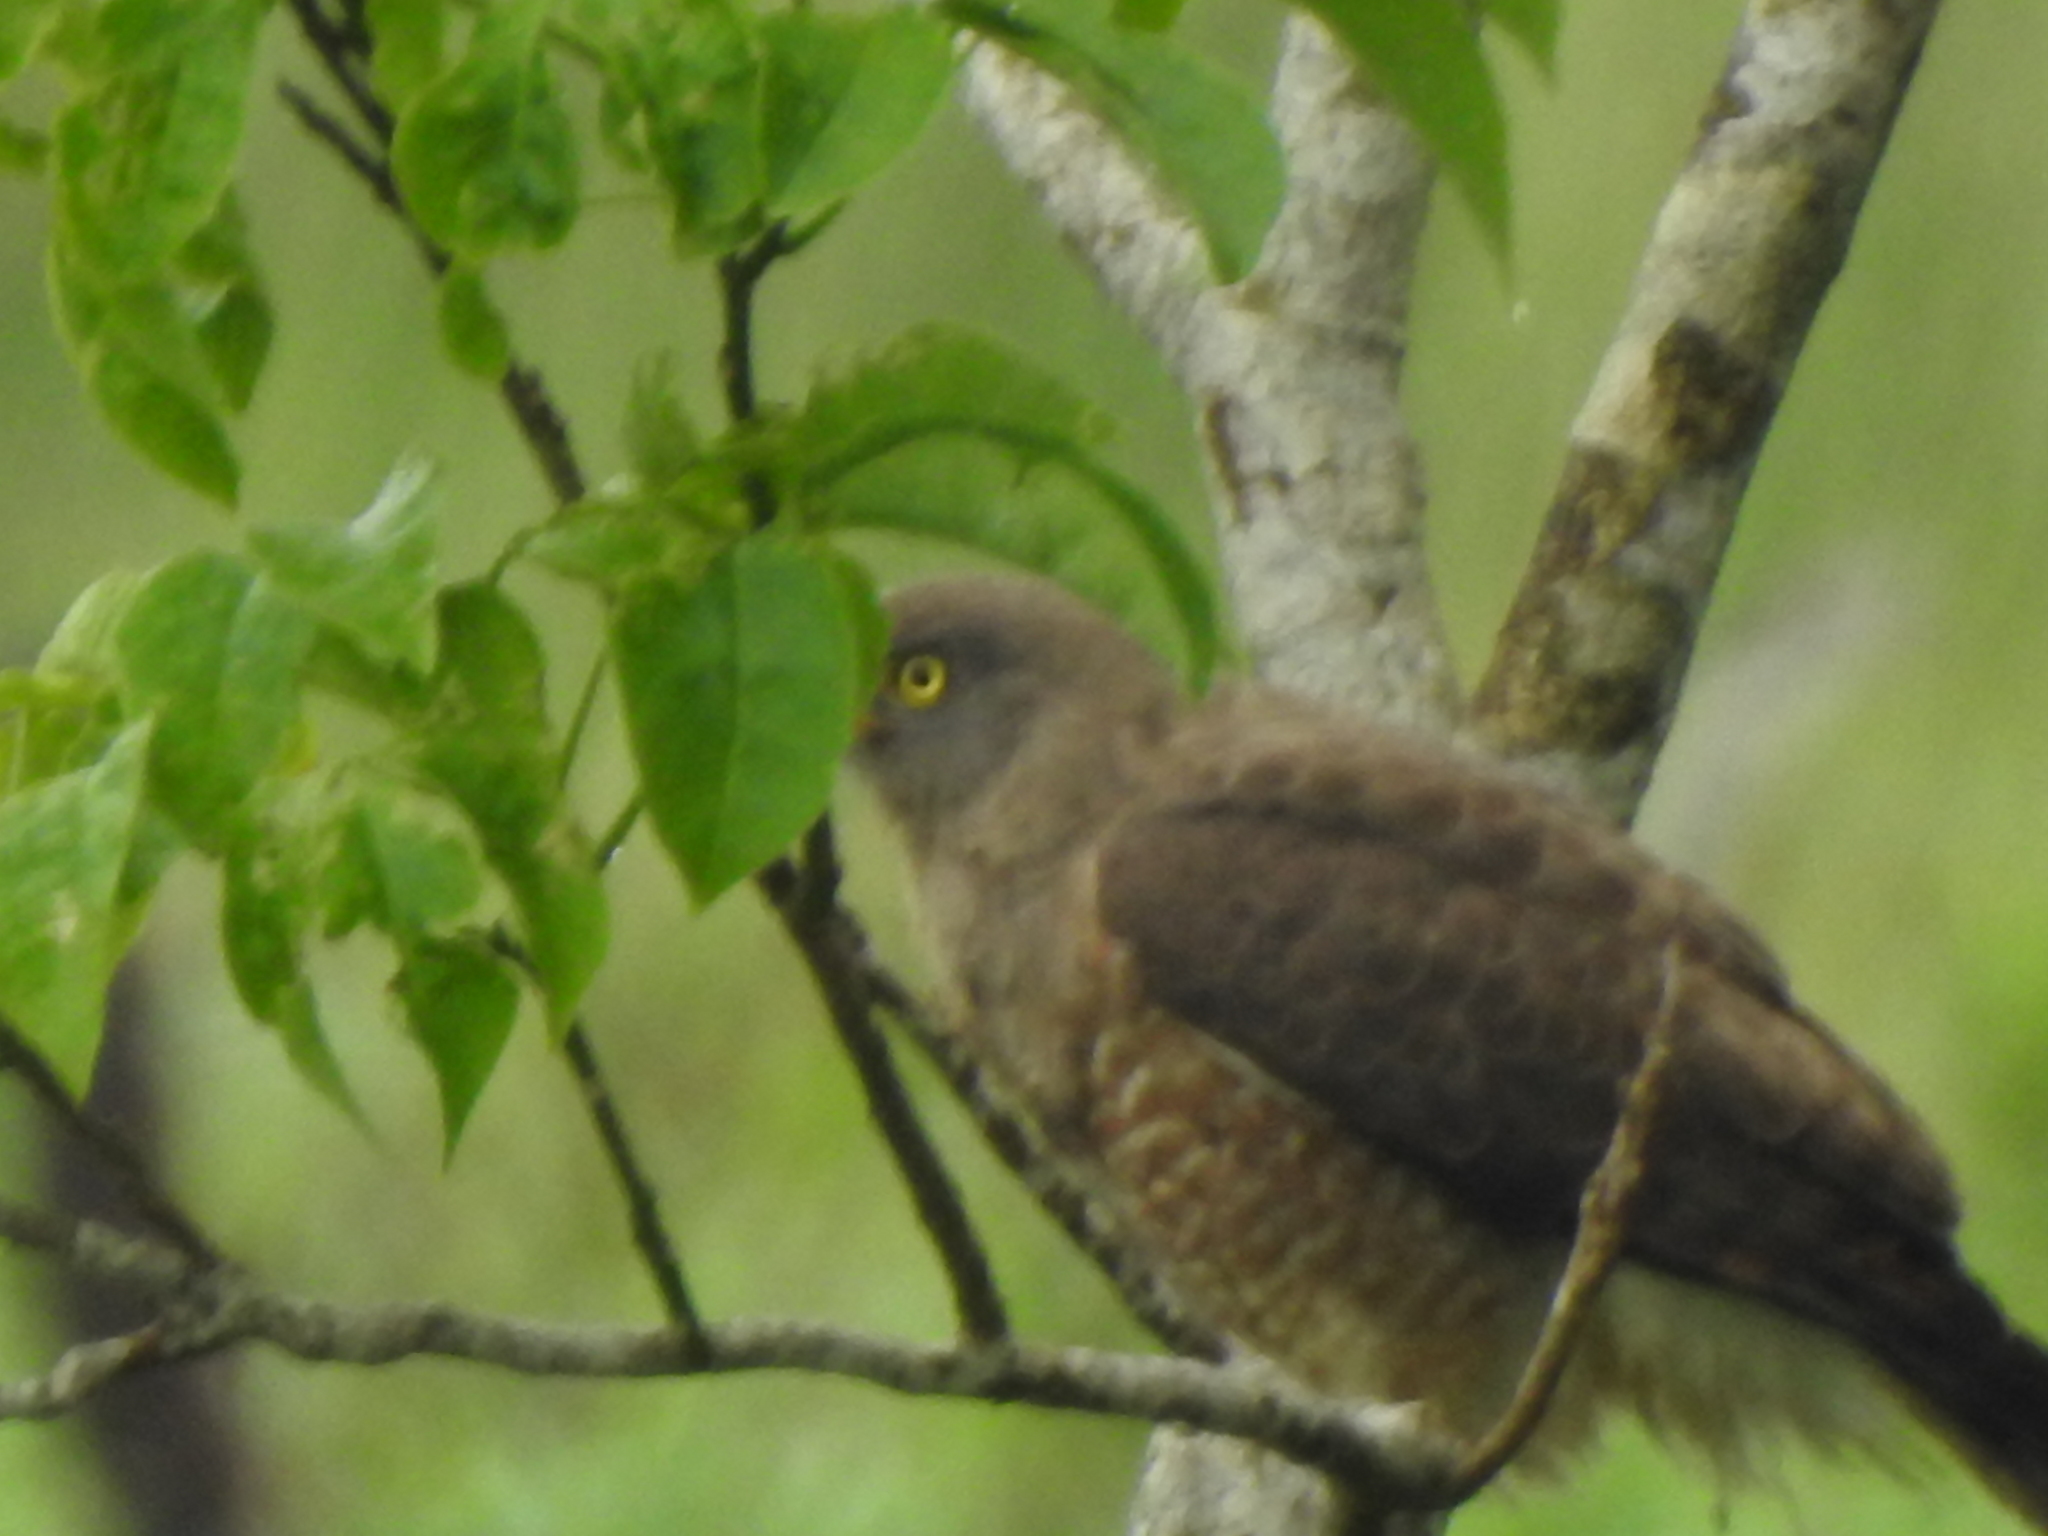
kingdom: Animalia
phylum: Chordata
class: Aves
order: Accipitriformes
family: Accipitridae
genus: Rupornis
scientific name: Rupornis magnirostris
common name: Roadside hawk
